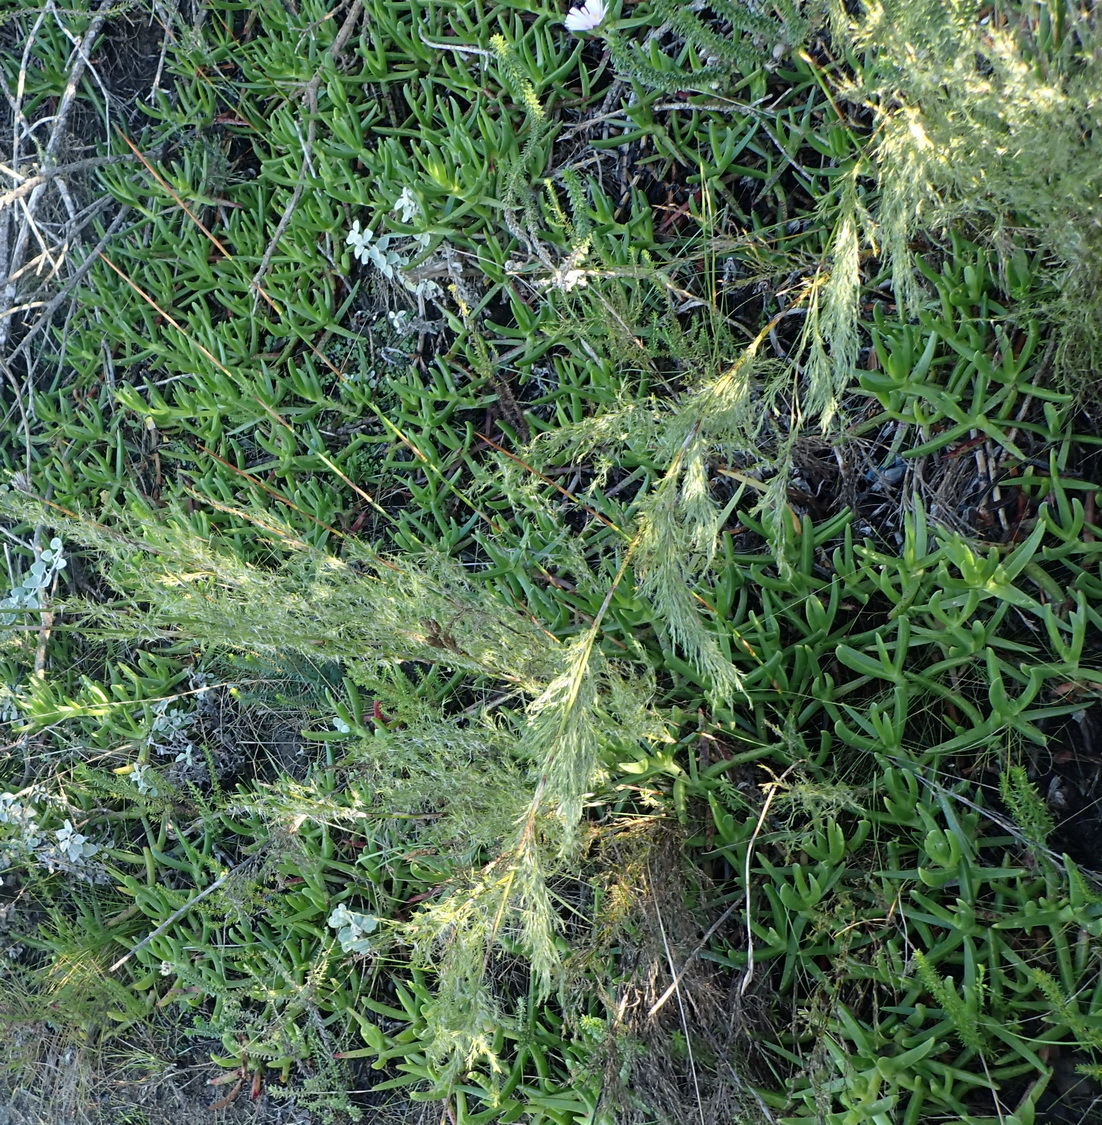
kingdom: Plantae
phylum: Tracheophyta
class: Liliopsida
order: Poales
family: Restionaceae
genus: Thamnochortus
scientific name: Thamnochortus glaber
